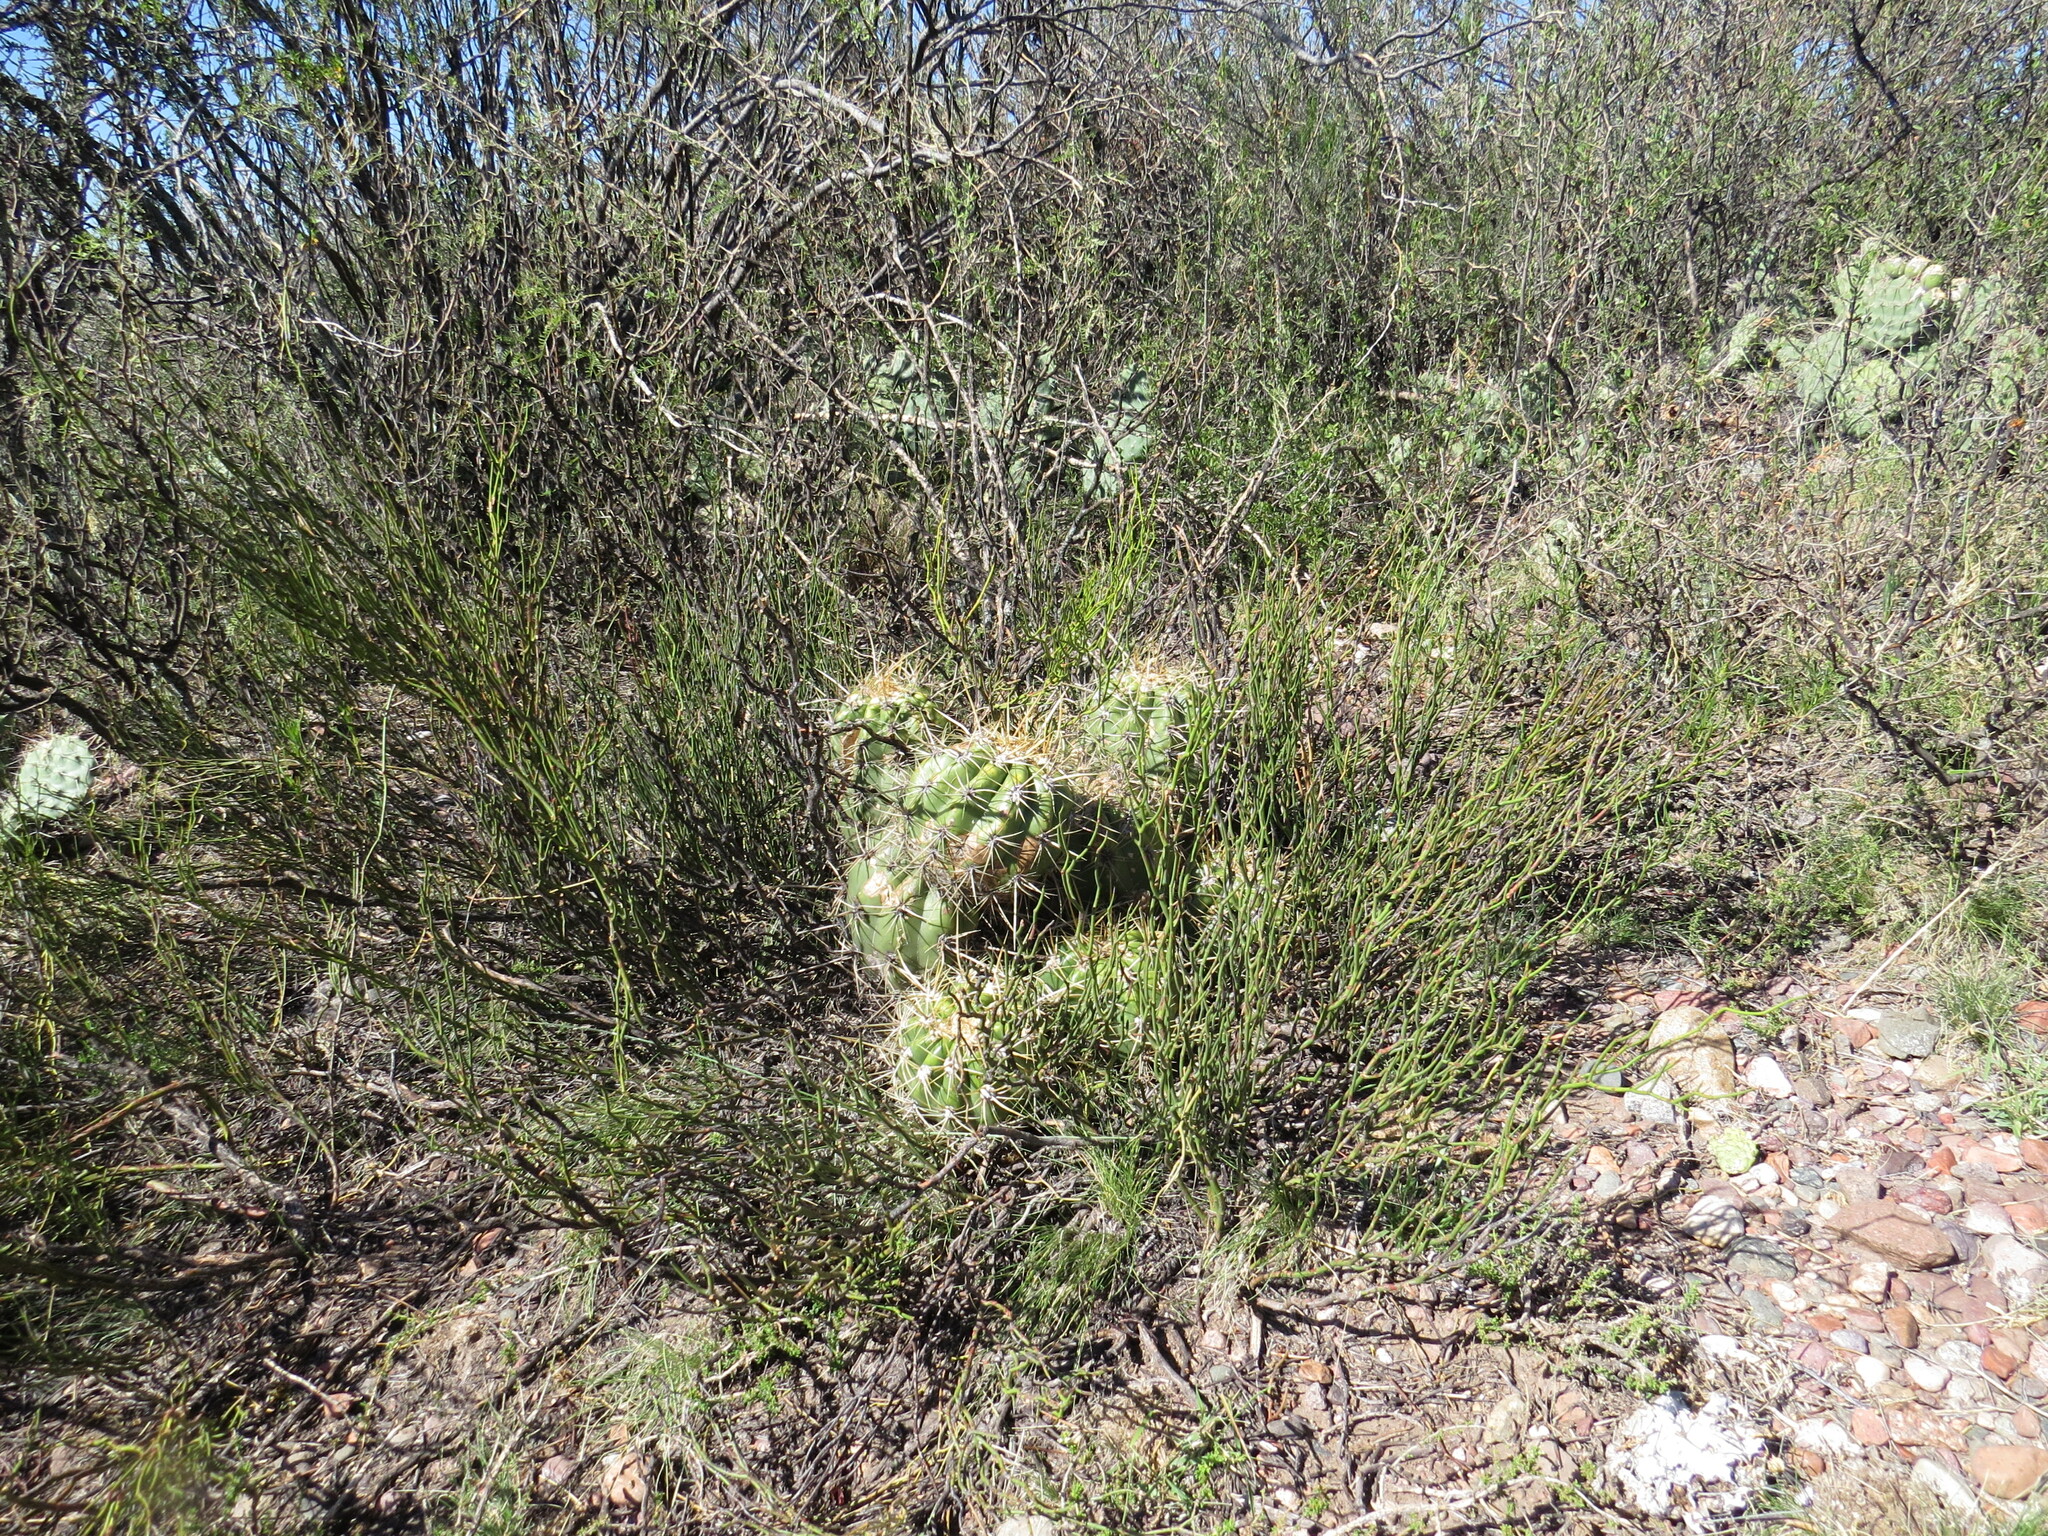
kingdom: Plantae
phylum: Tracheophyta
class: Magnoliopsida
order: Caryophyllales
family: Cactaceae
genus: Soehrensia
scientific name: Soehrensia candicans
